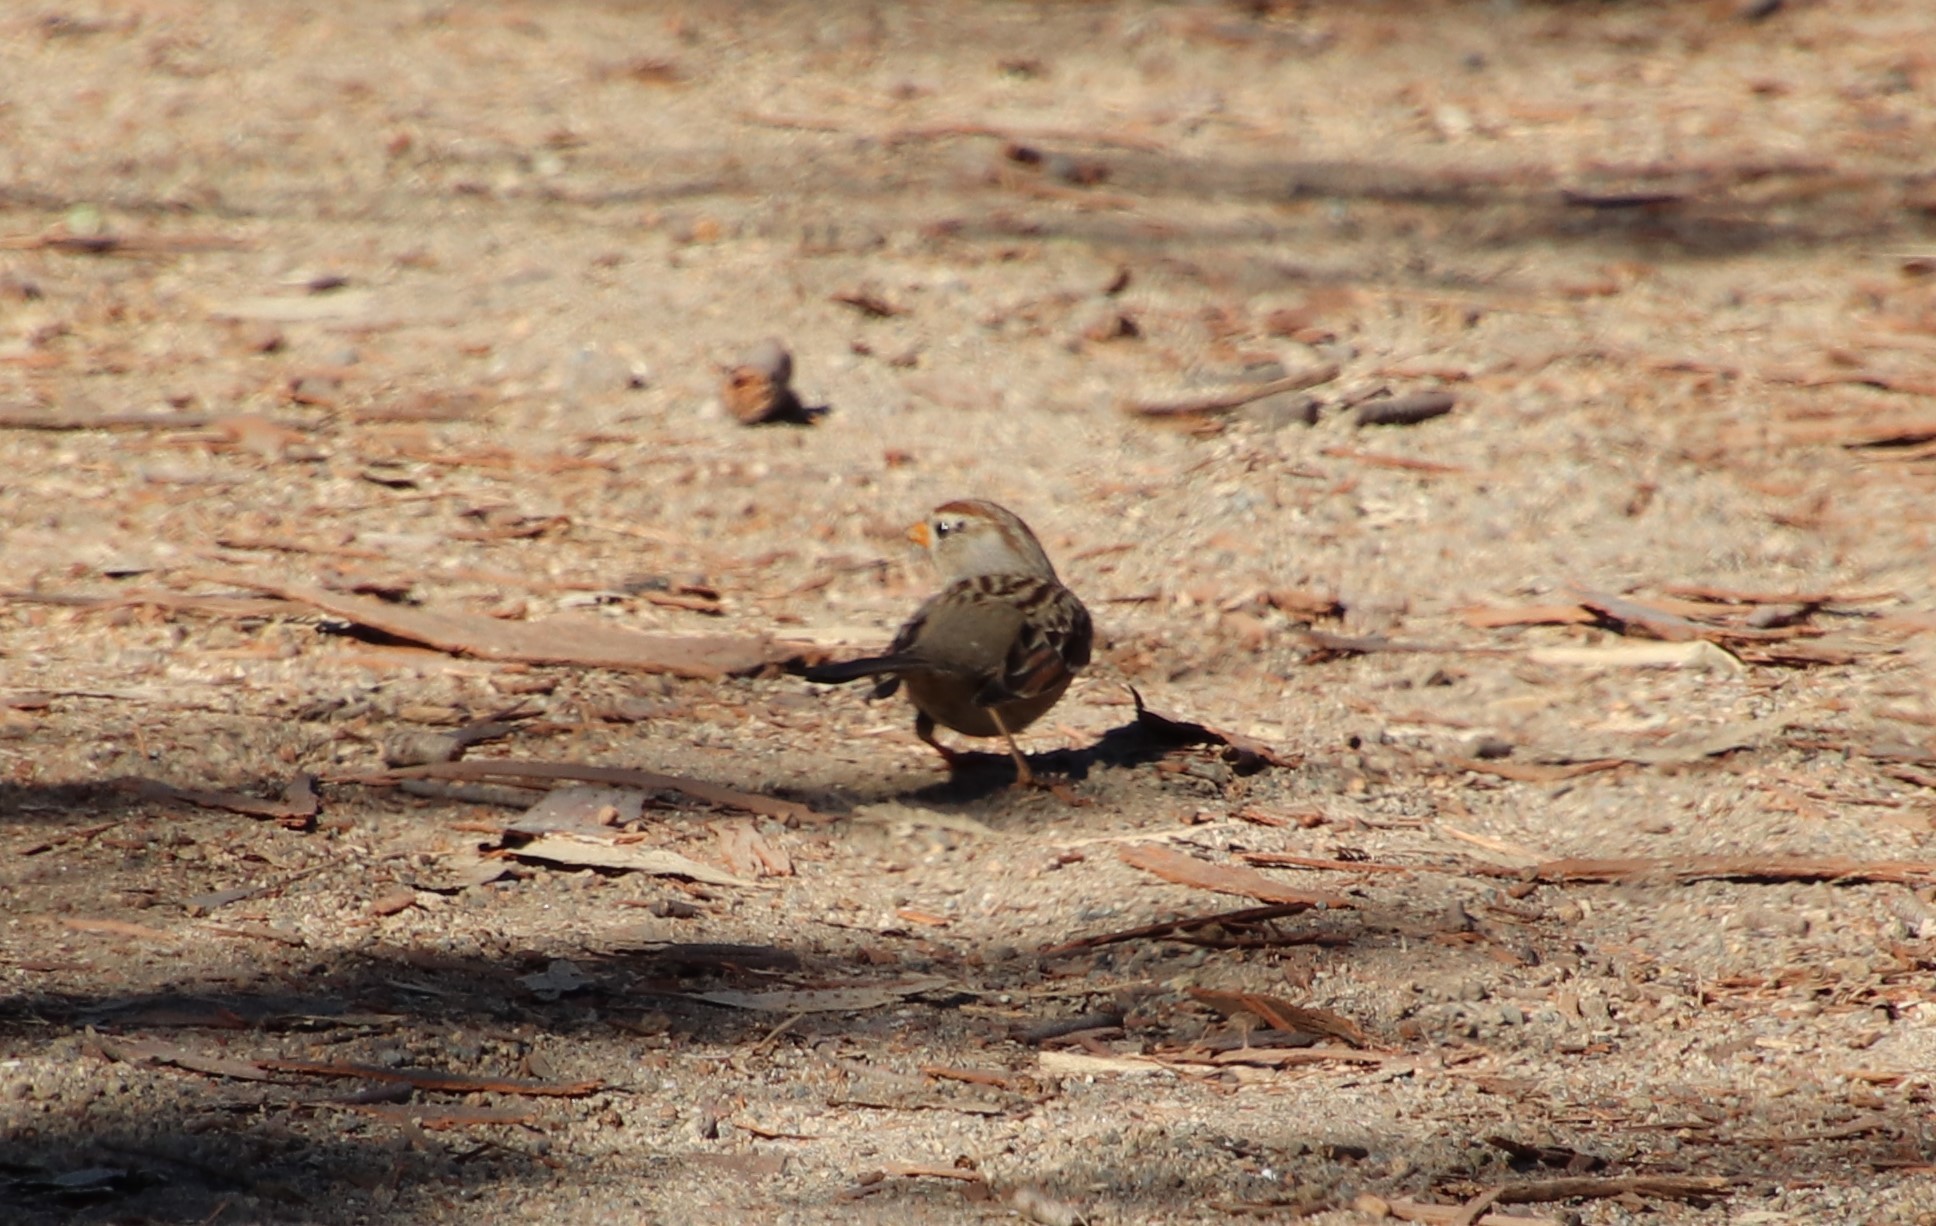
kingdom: Animalia
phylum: Chordata
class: Aves
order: Passeriformes
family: Passerellidae
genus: Zonotrichia
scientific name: Zonotrichia leucophrys
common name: White-crowned sparrow
